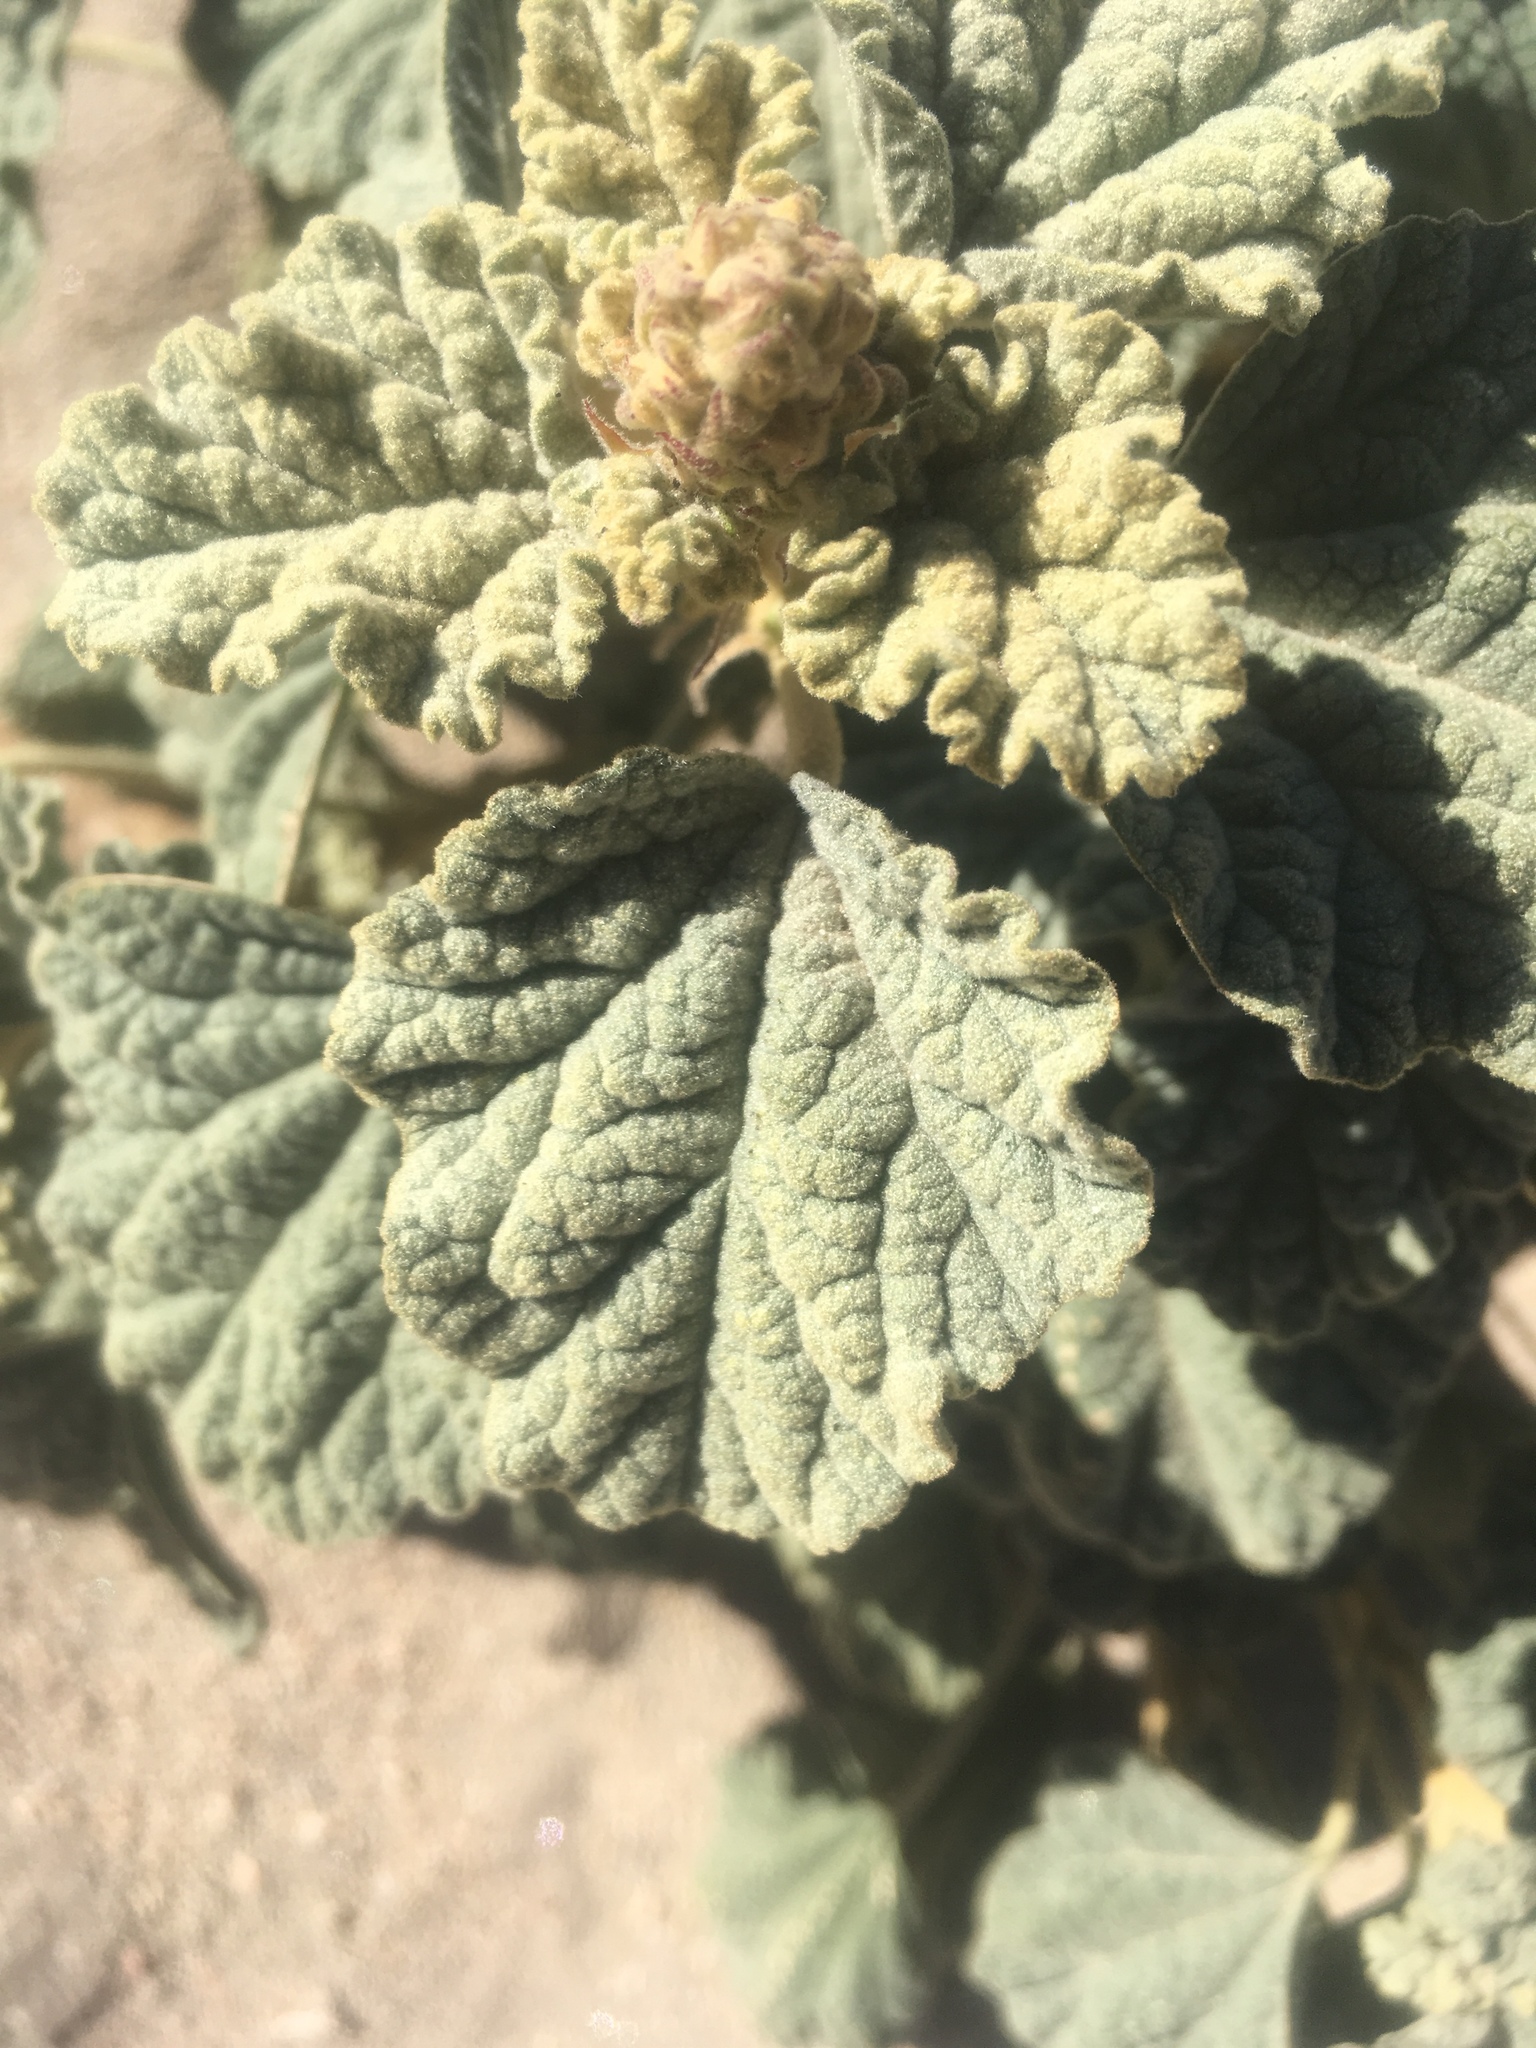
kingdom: Plantae
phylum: Tracheophyta
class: Magnoliopsida
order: Malvales
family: Malvaceae
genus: Sphaeralcea
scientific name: Sphaeralcea ambigua
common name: Apricot globe-mallow
